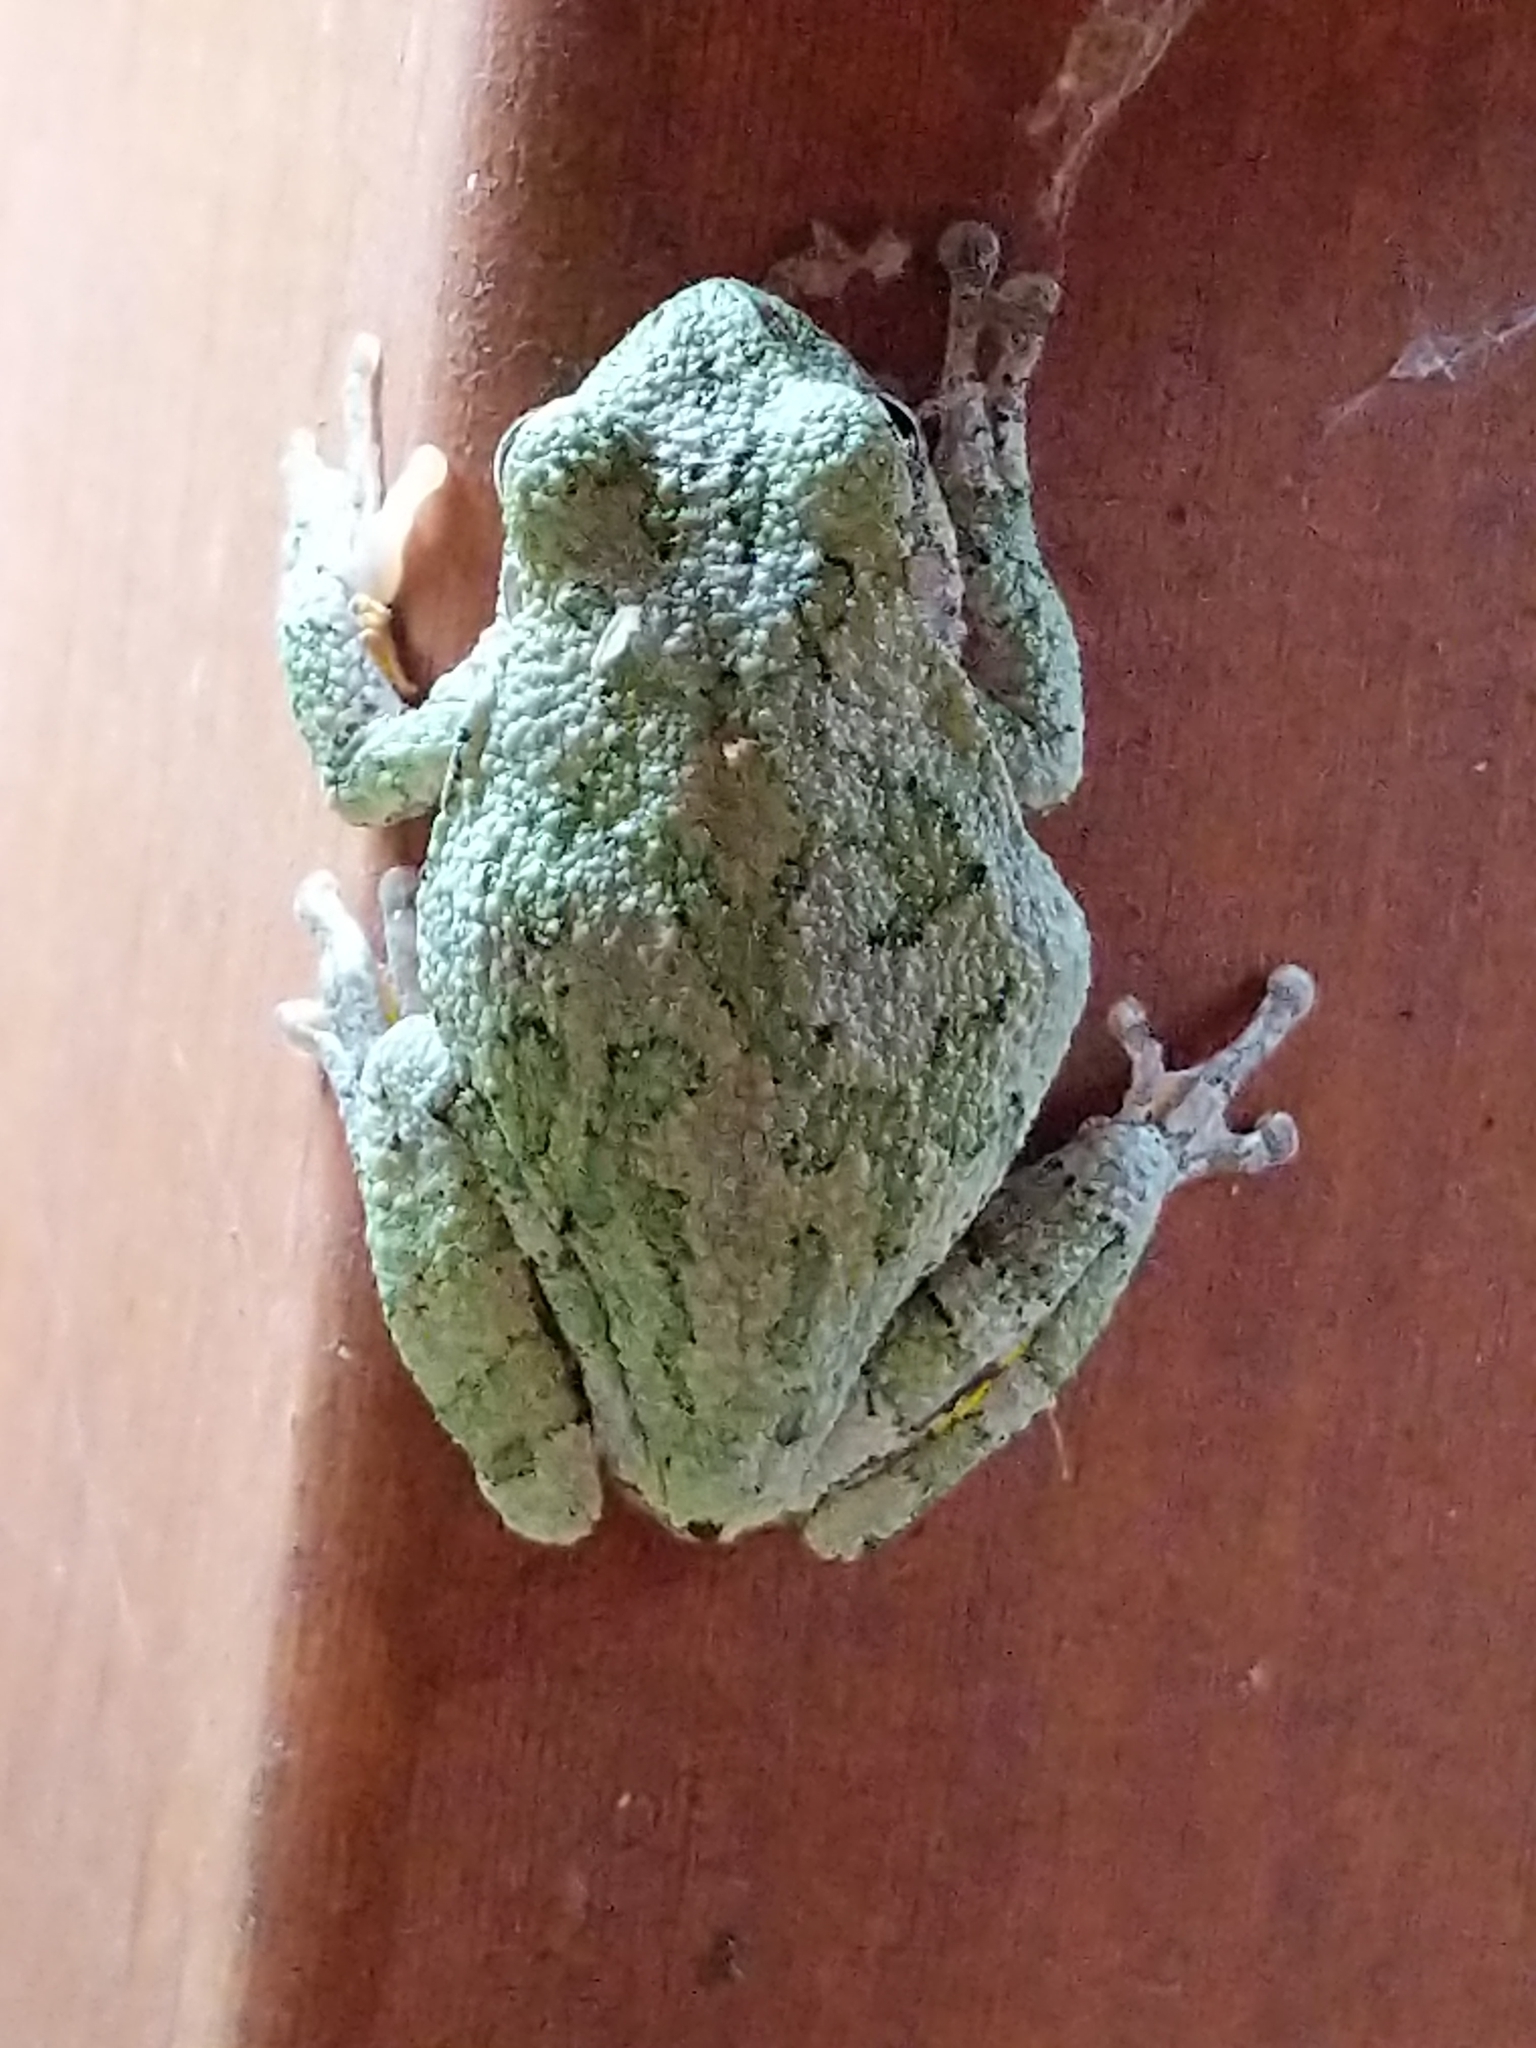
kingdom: Animalia
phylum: Chordata
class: Amphibia
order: Anura
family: Hylidae
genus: Hyla
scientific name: Hyla
